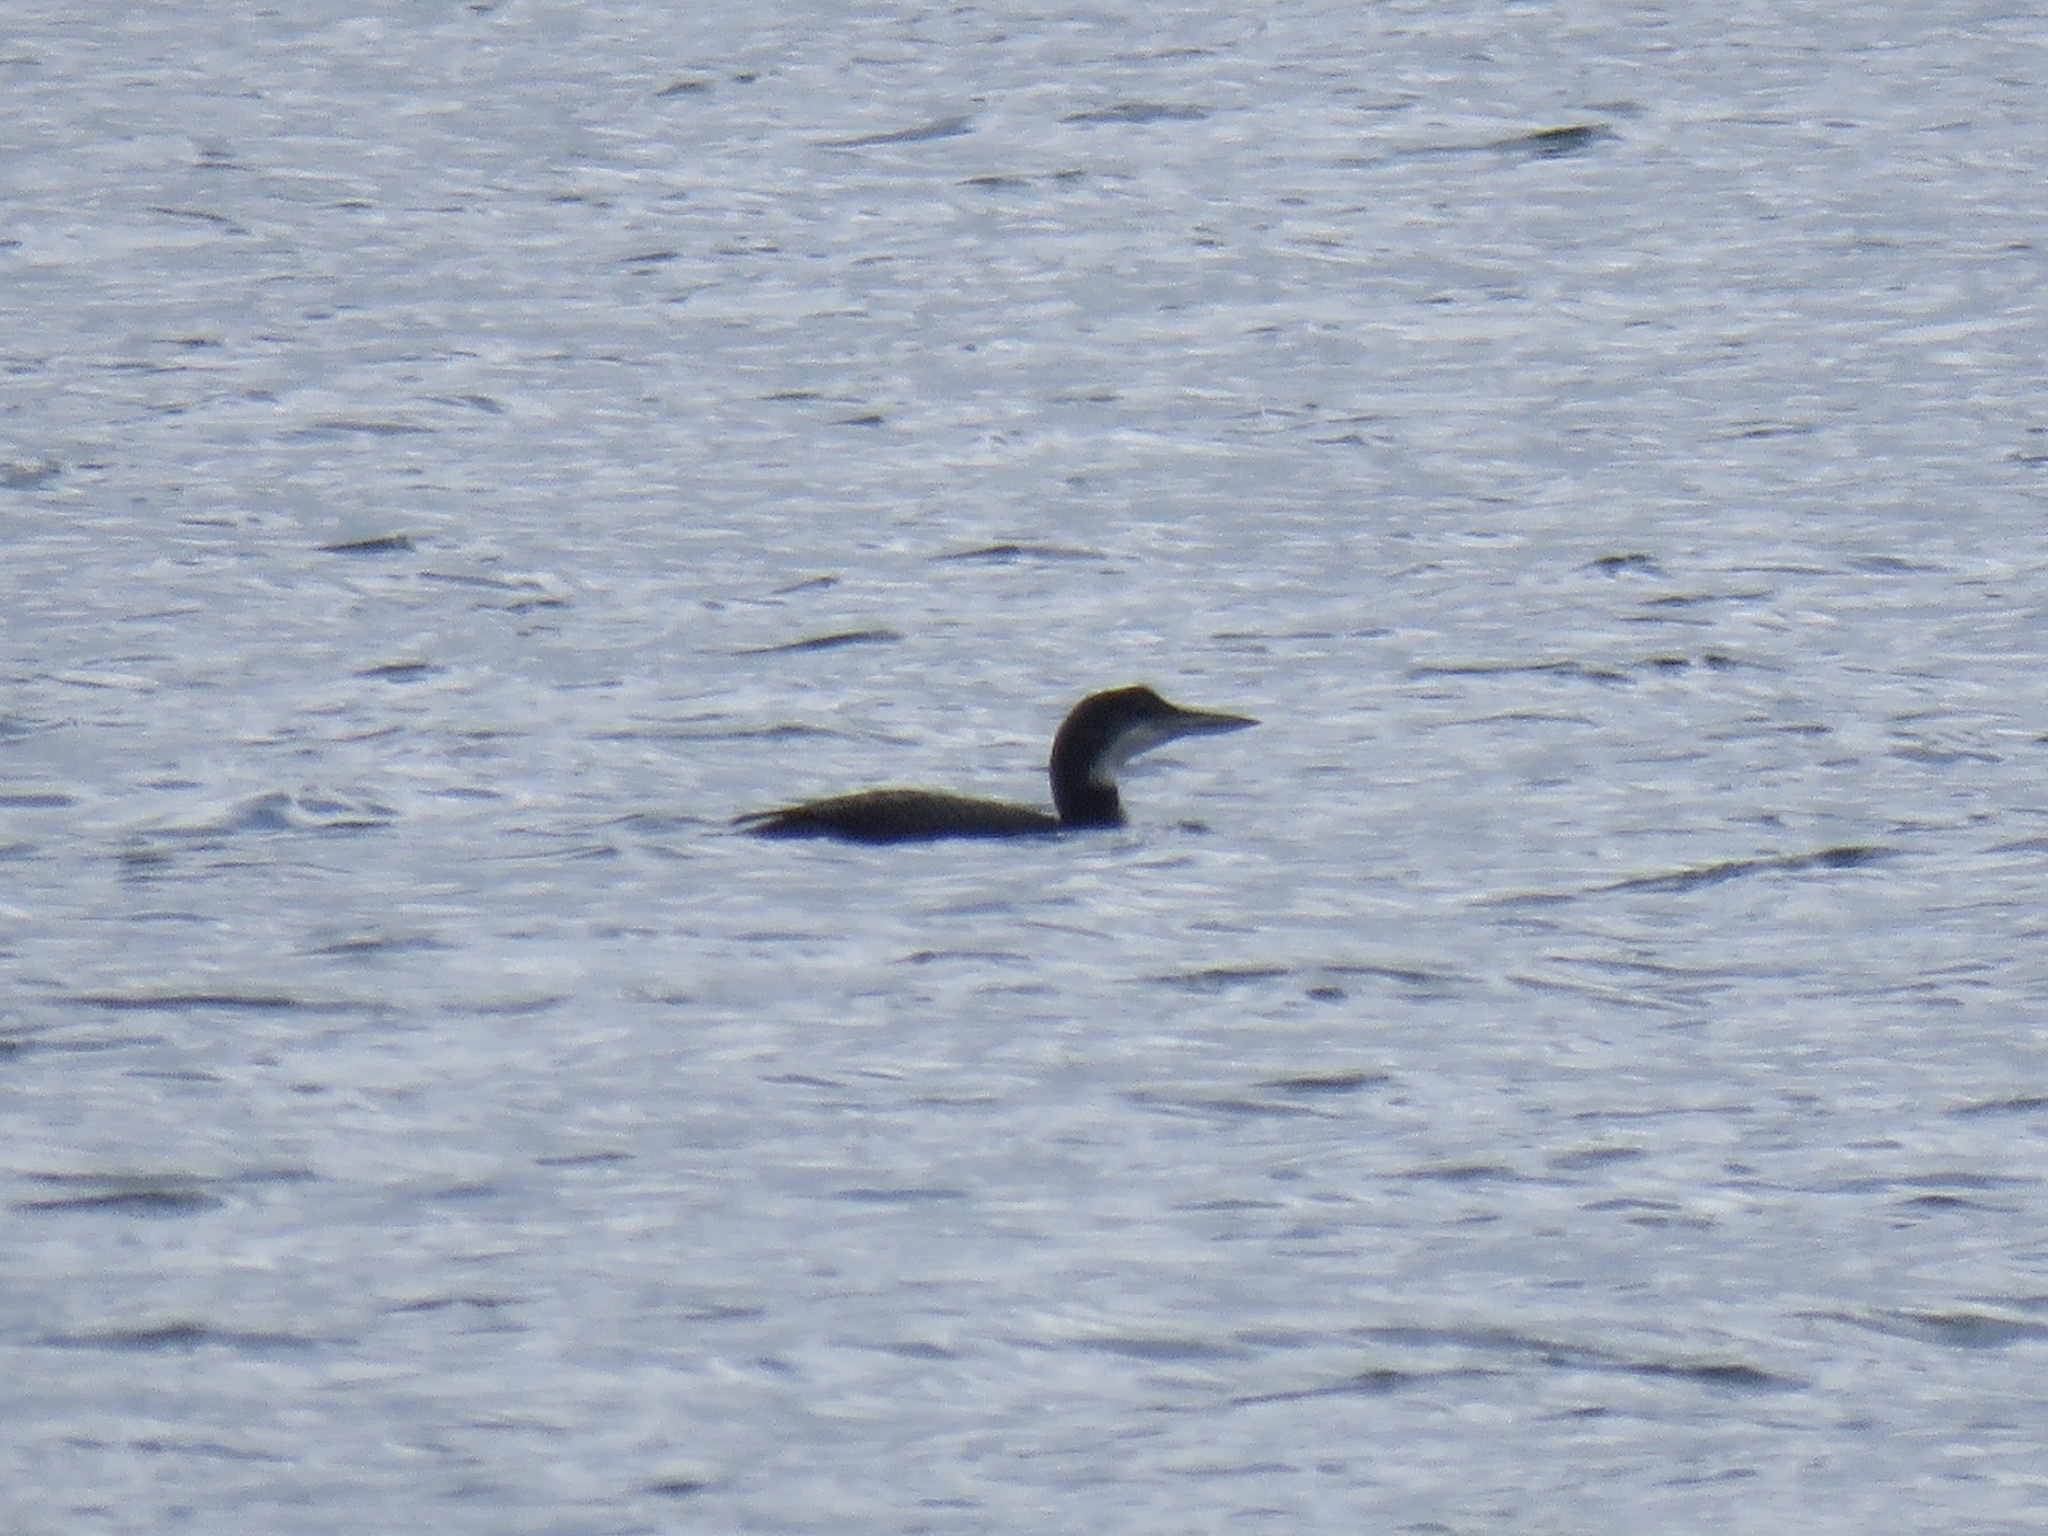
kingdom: Animalia
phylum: Chordata
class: Aves
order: Gaviiformes
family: Gaviidae
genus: Gavia
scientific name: Gavia immer
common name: Common loon
